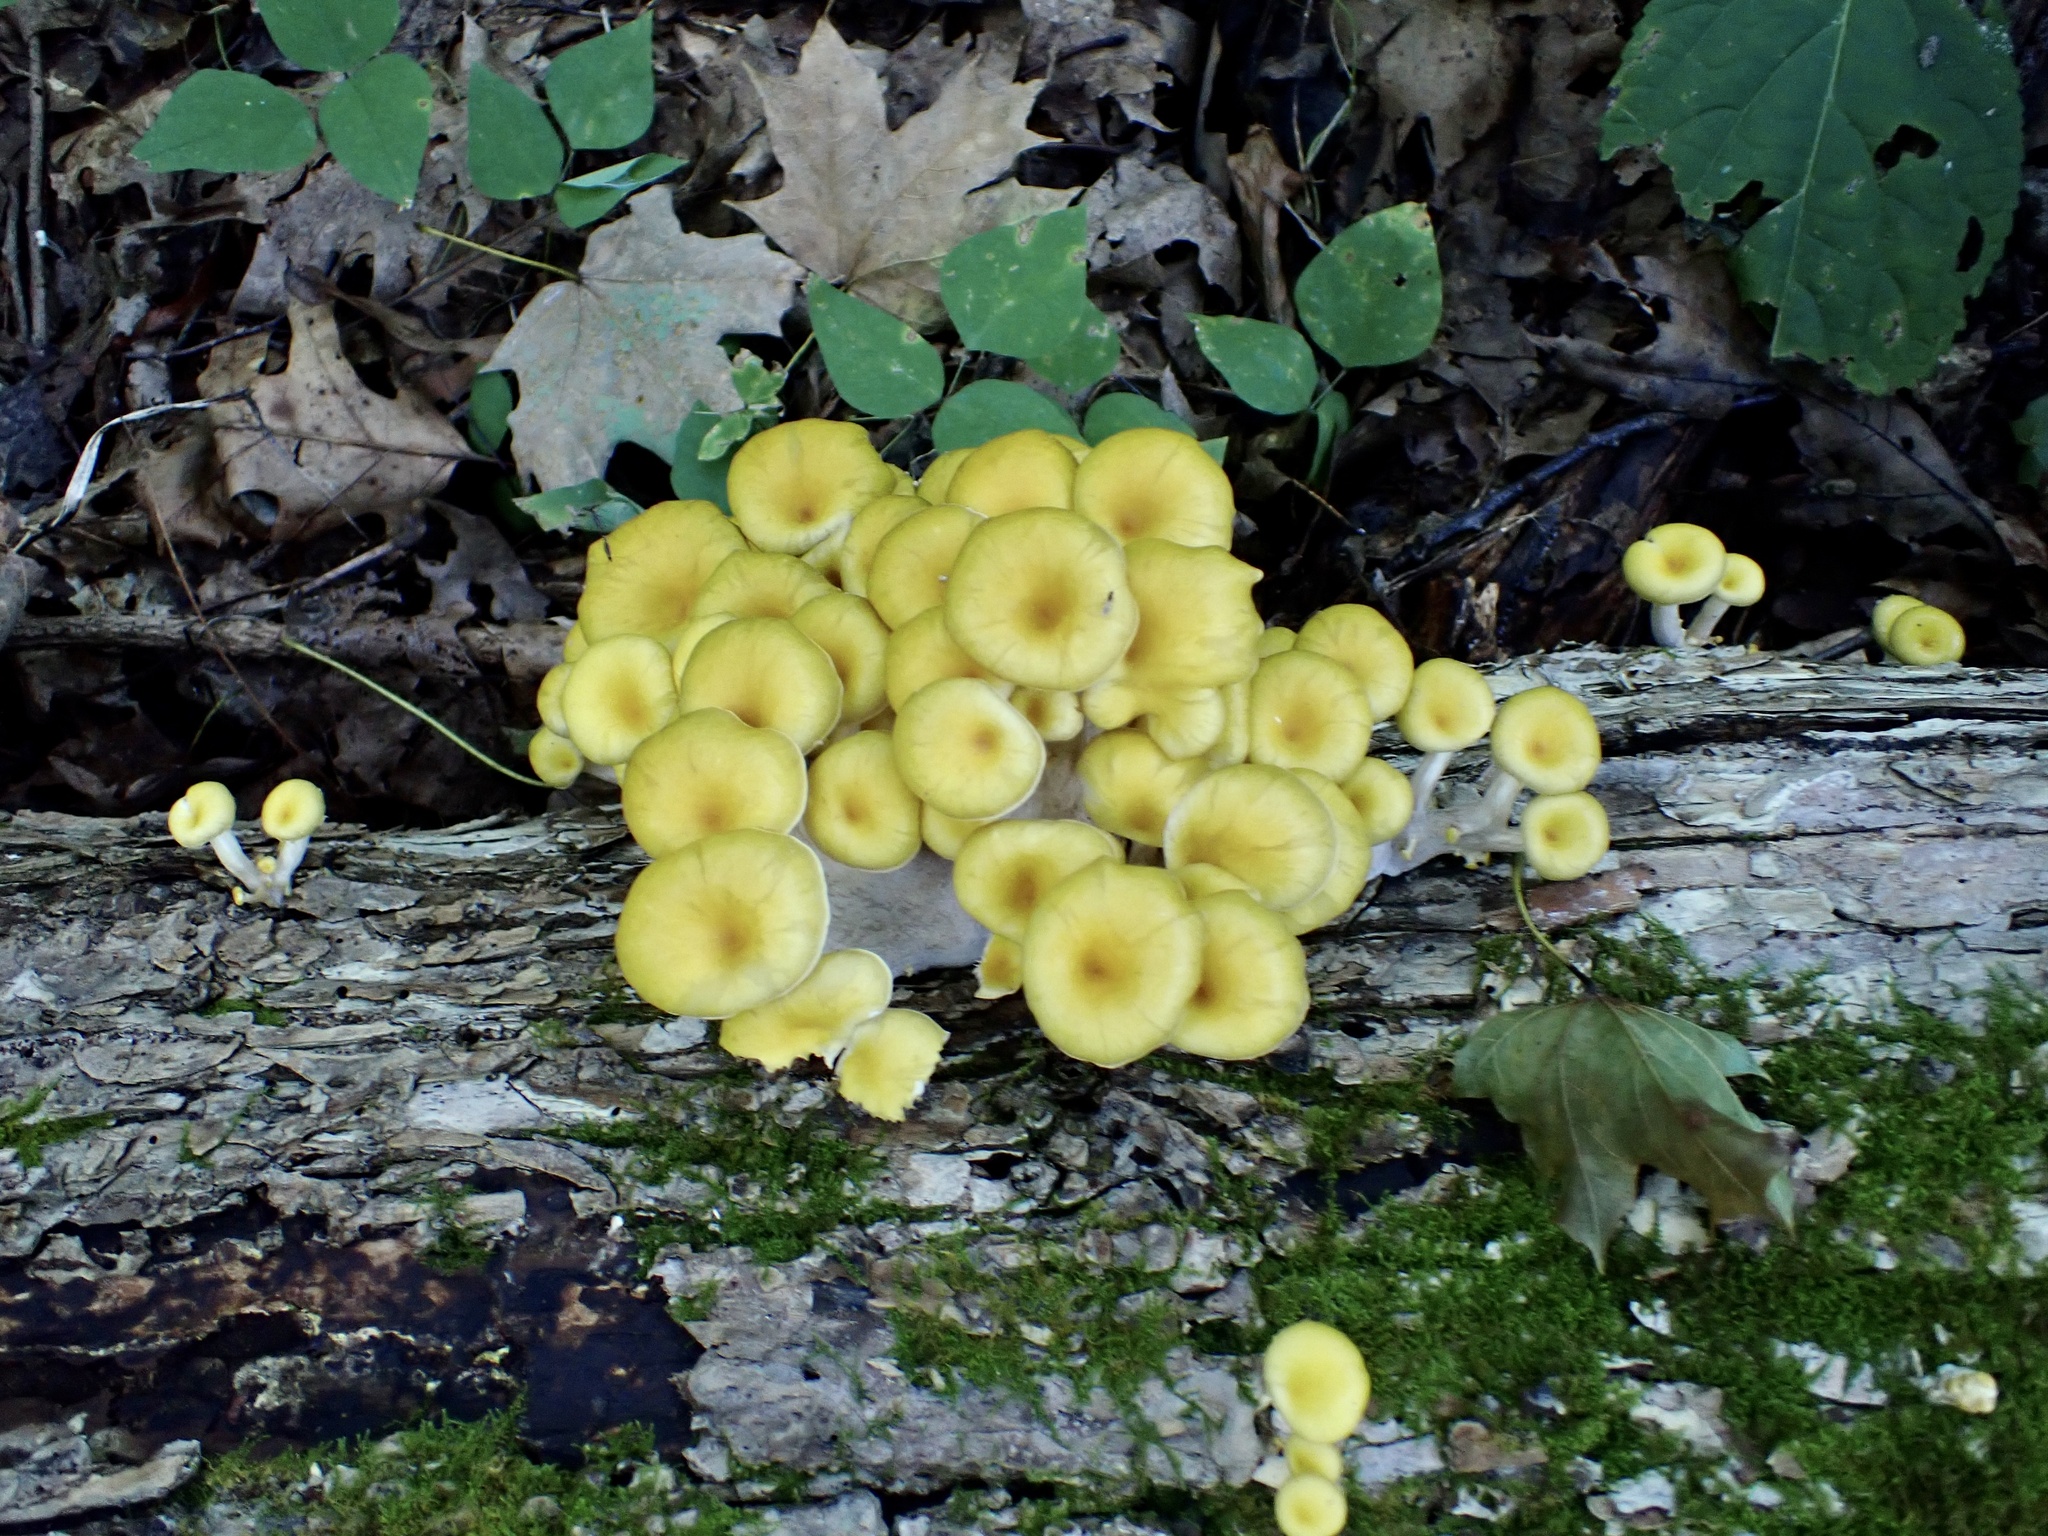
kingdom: Fungi
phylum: Basidiomycota
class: Agaricomycetes
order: Agaricales
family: Pleurotaceae
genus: Pleurotus
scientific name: Pleurotus citrinopileatus
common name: Golden oyster mushroom
